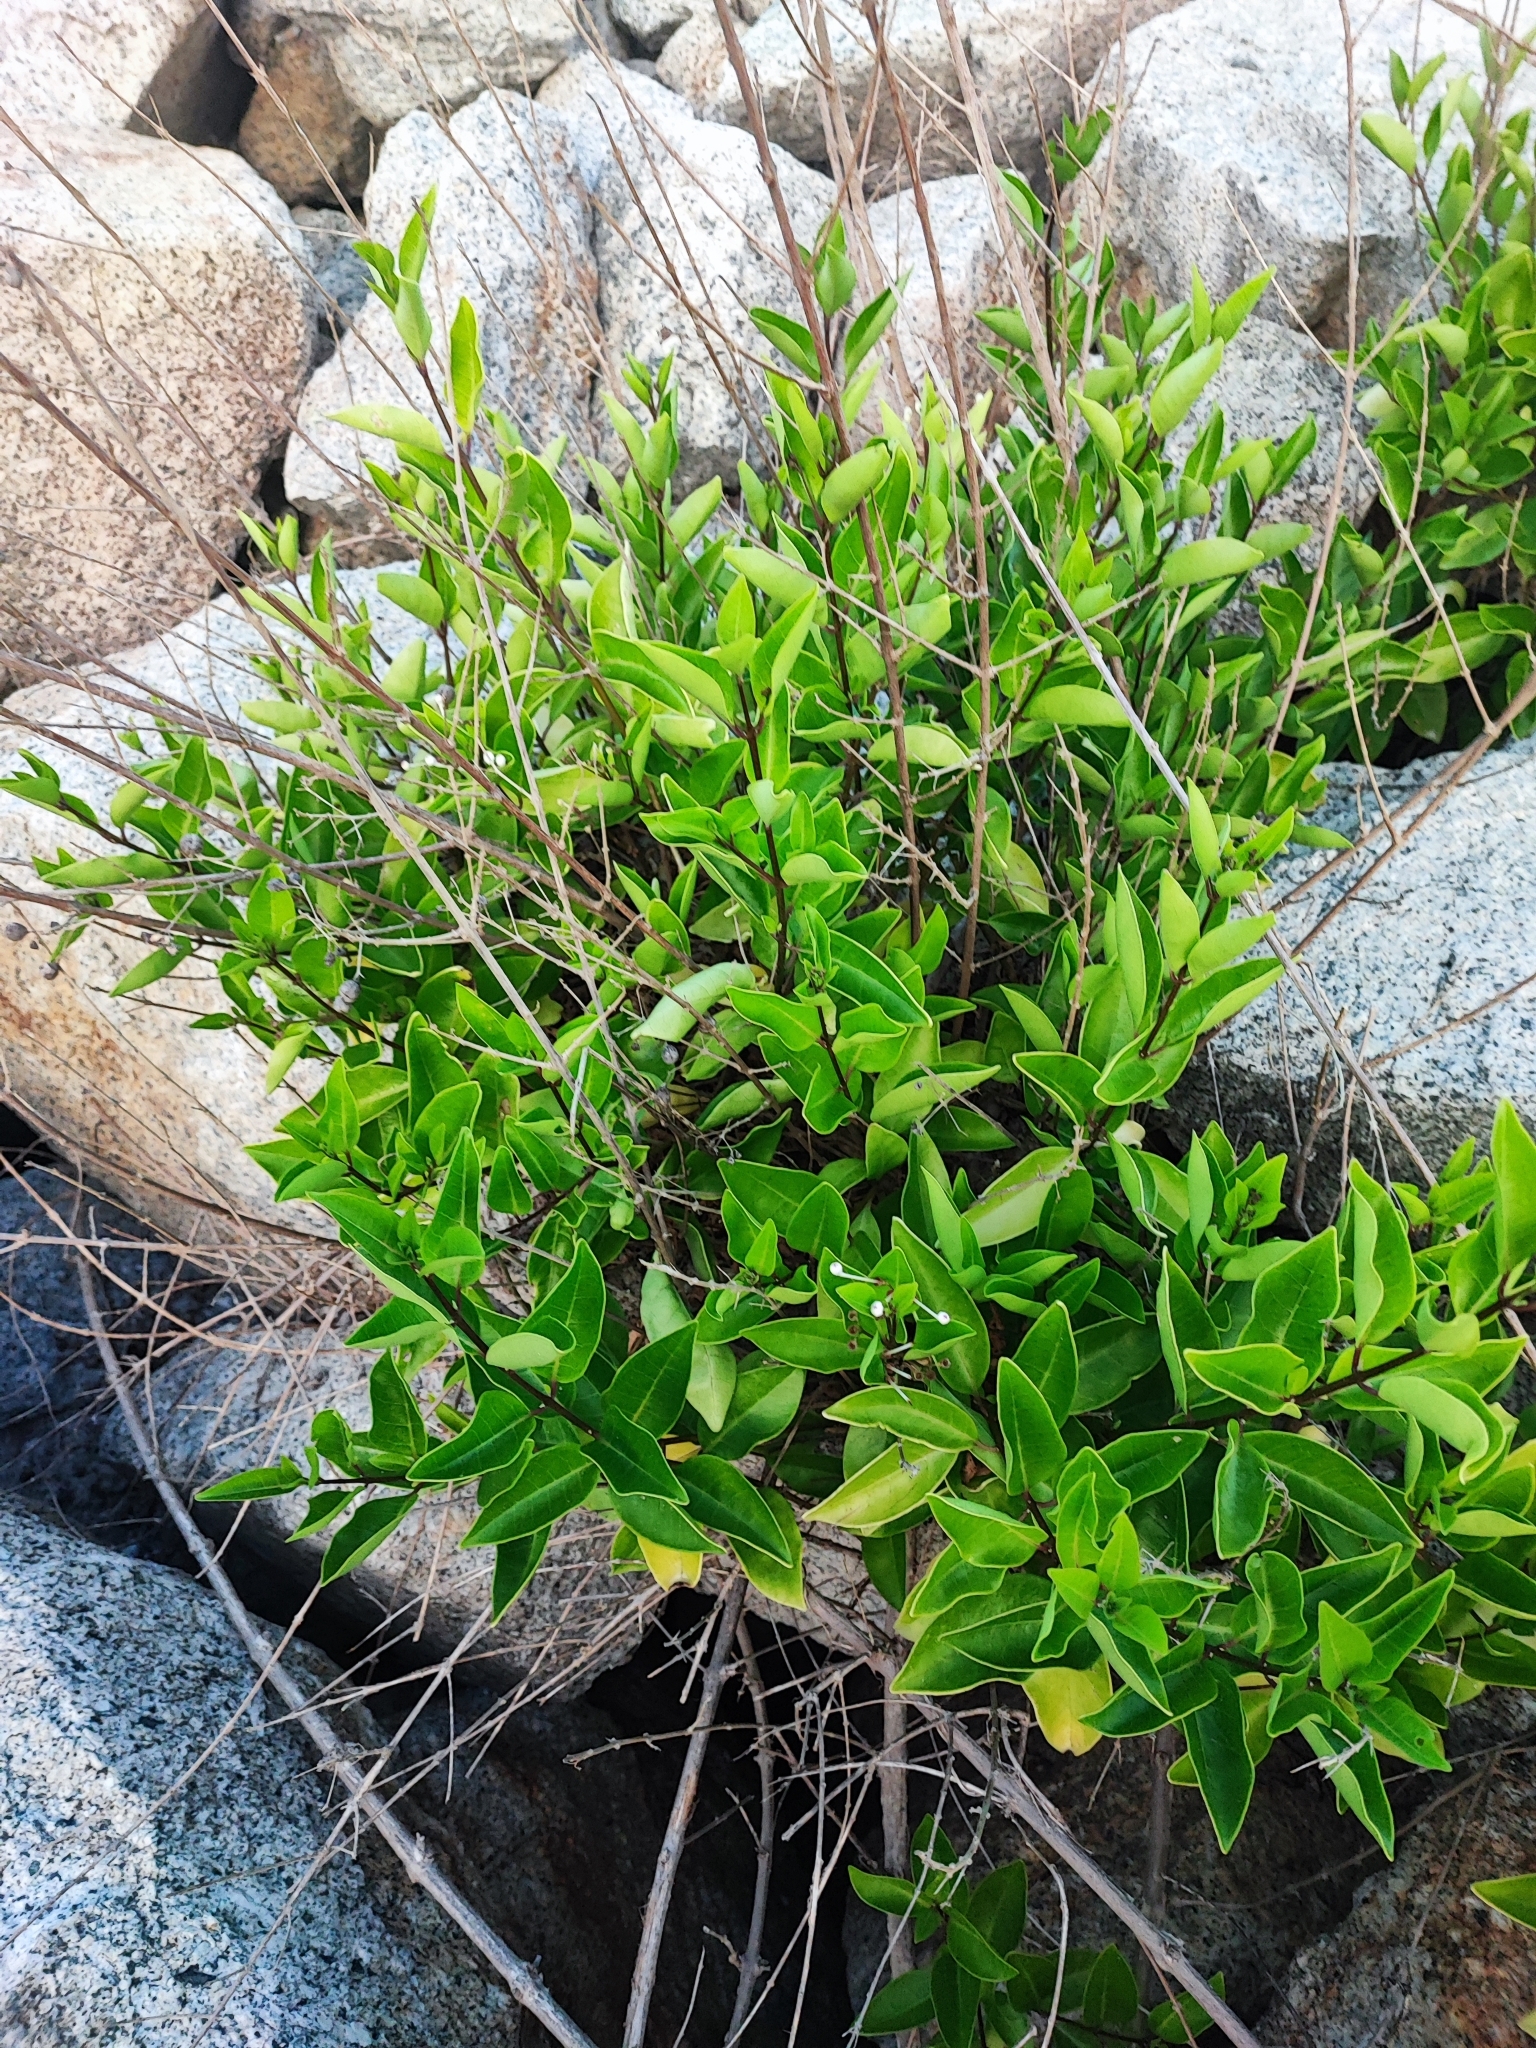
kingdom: Plantae
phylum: Tracheophyta
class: Magnoliopsida
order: Lamiales
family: Lamiaceae
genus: Volkameria
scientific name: Volkameria inermis
